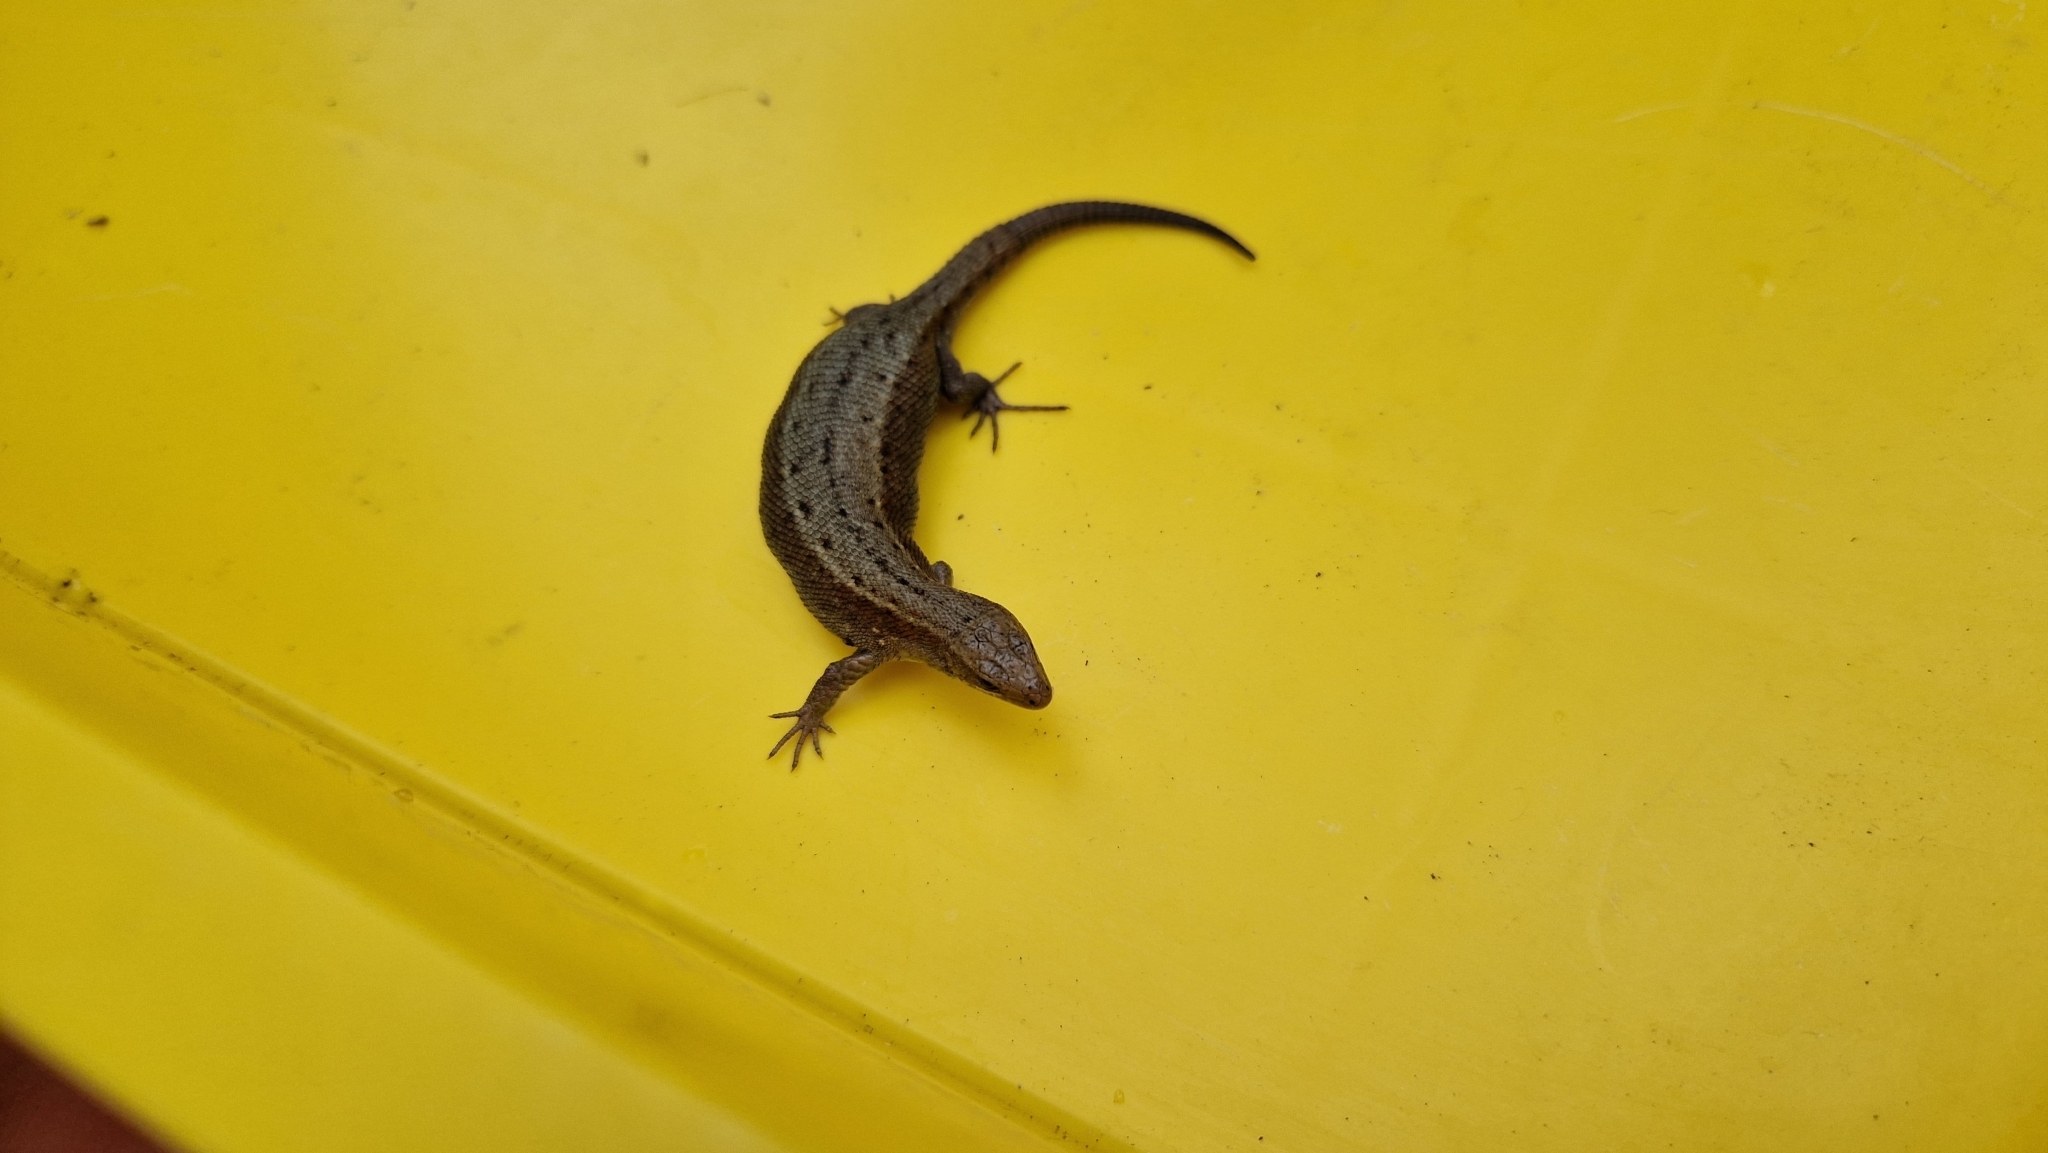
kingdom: Animalia
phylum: Chordata
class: Squamata
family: Lacertidae
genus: Zootoca
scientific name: Zootoca vivipara
